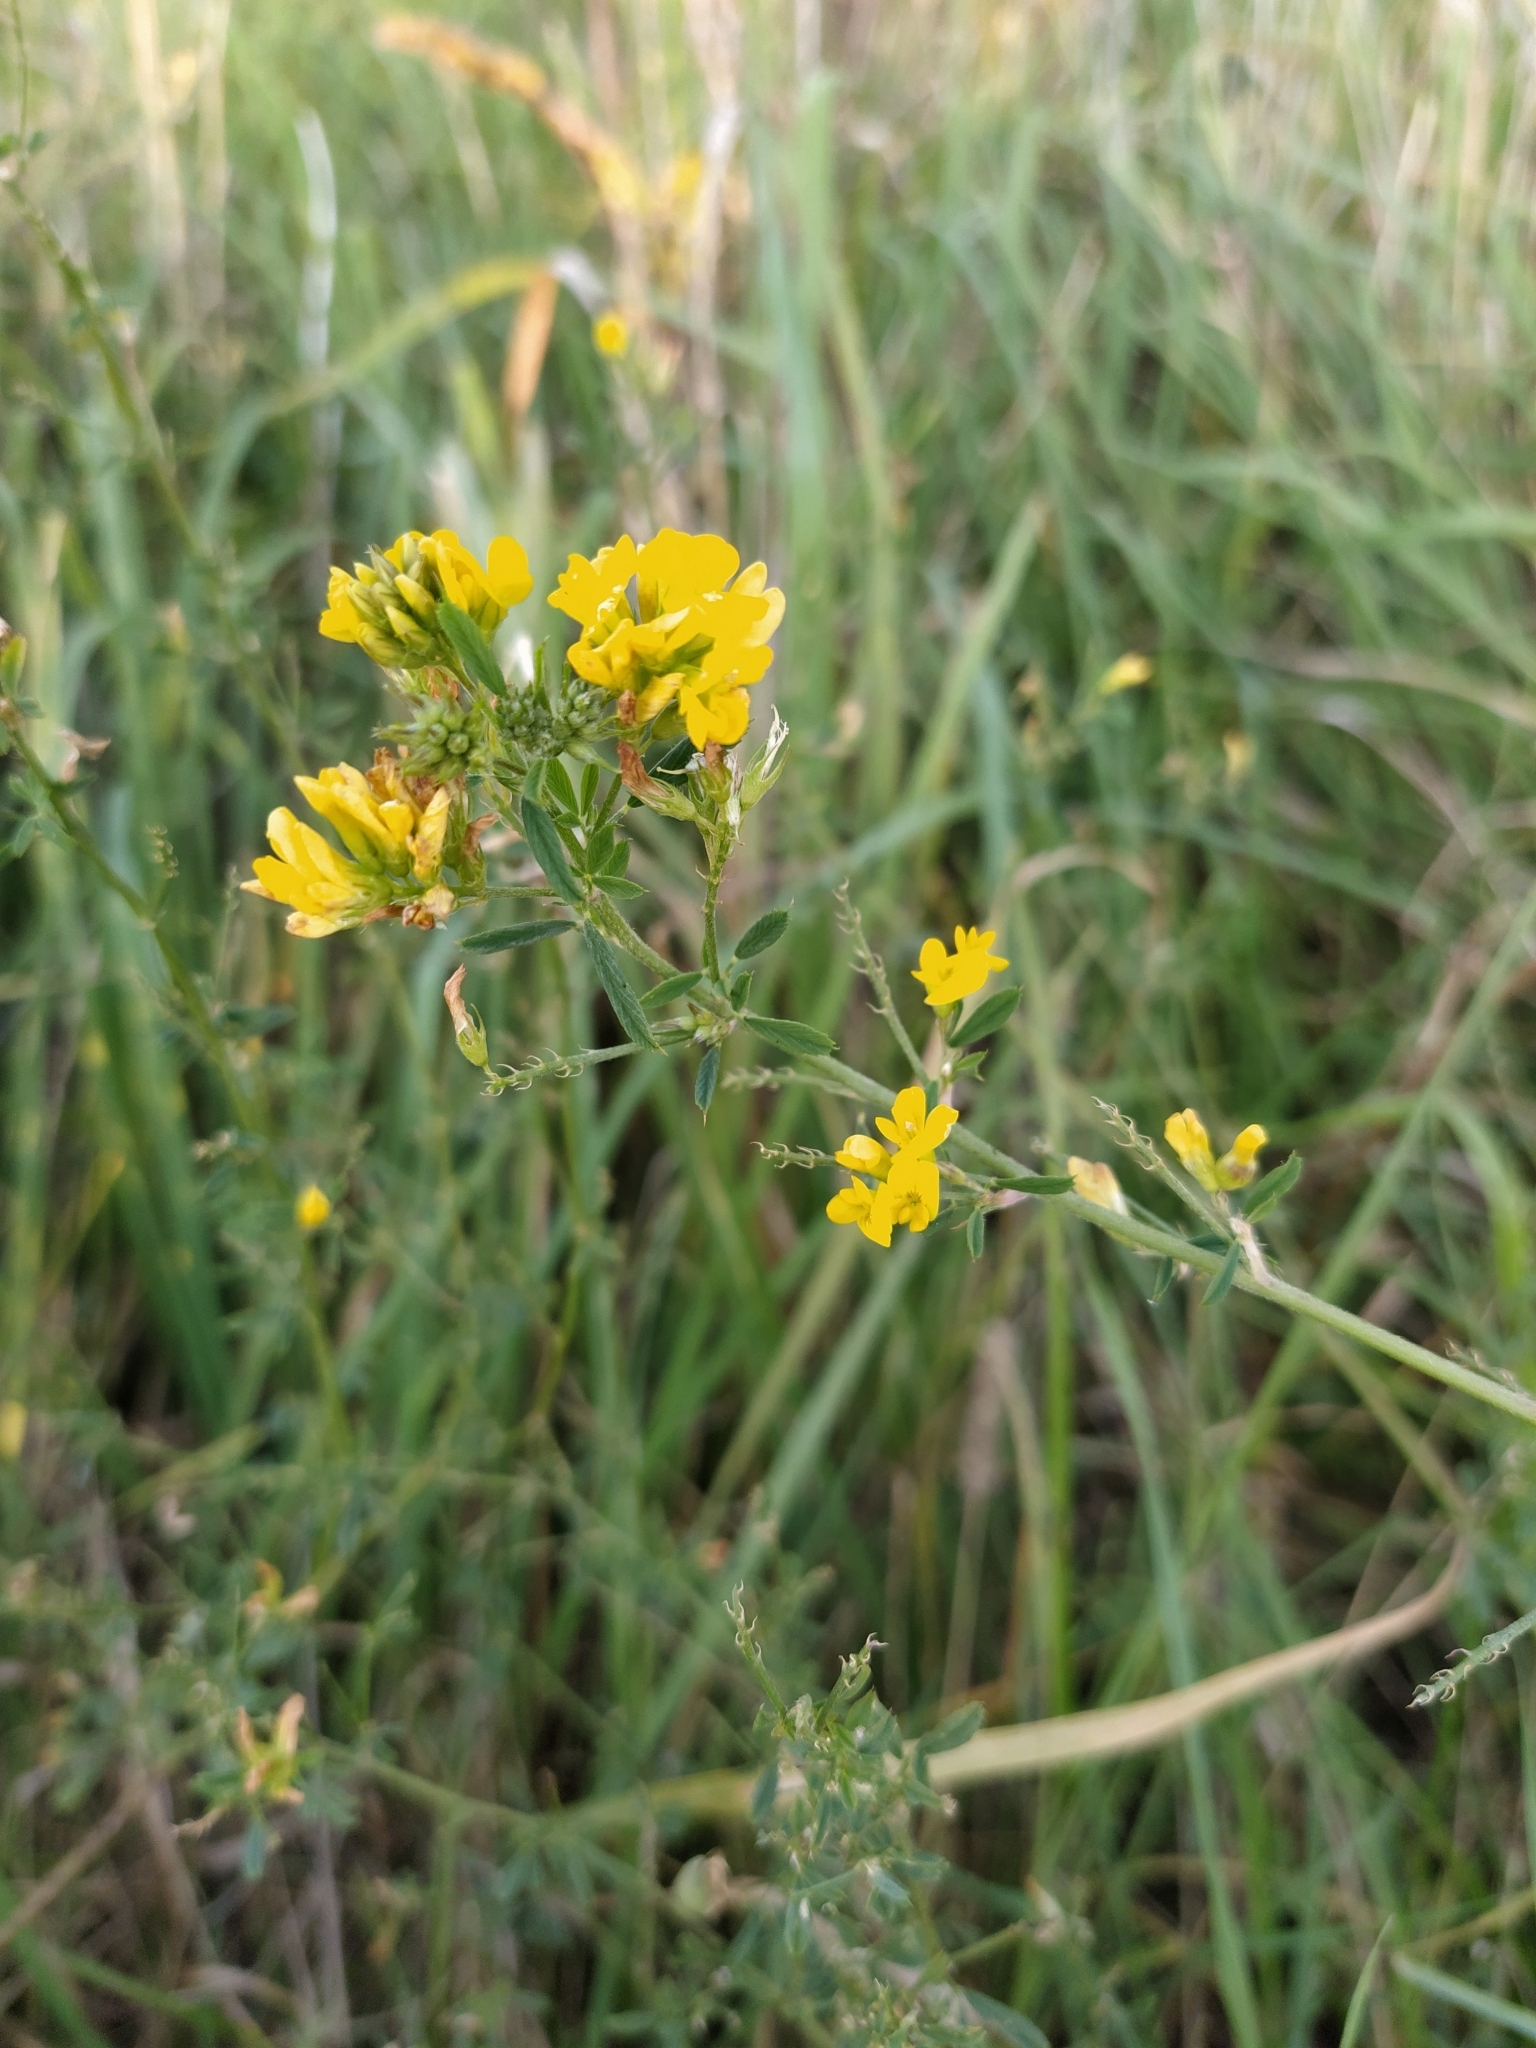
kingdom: Plantae
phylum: Tracheophyta
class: Magnoliopsida
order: Fabales
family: Fabaceae
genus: Medicago
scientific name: Medicago falcata
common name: Sickle medick
